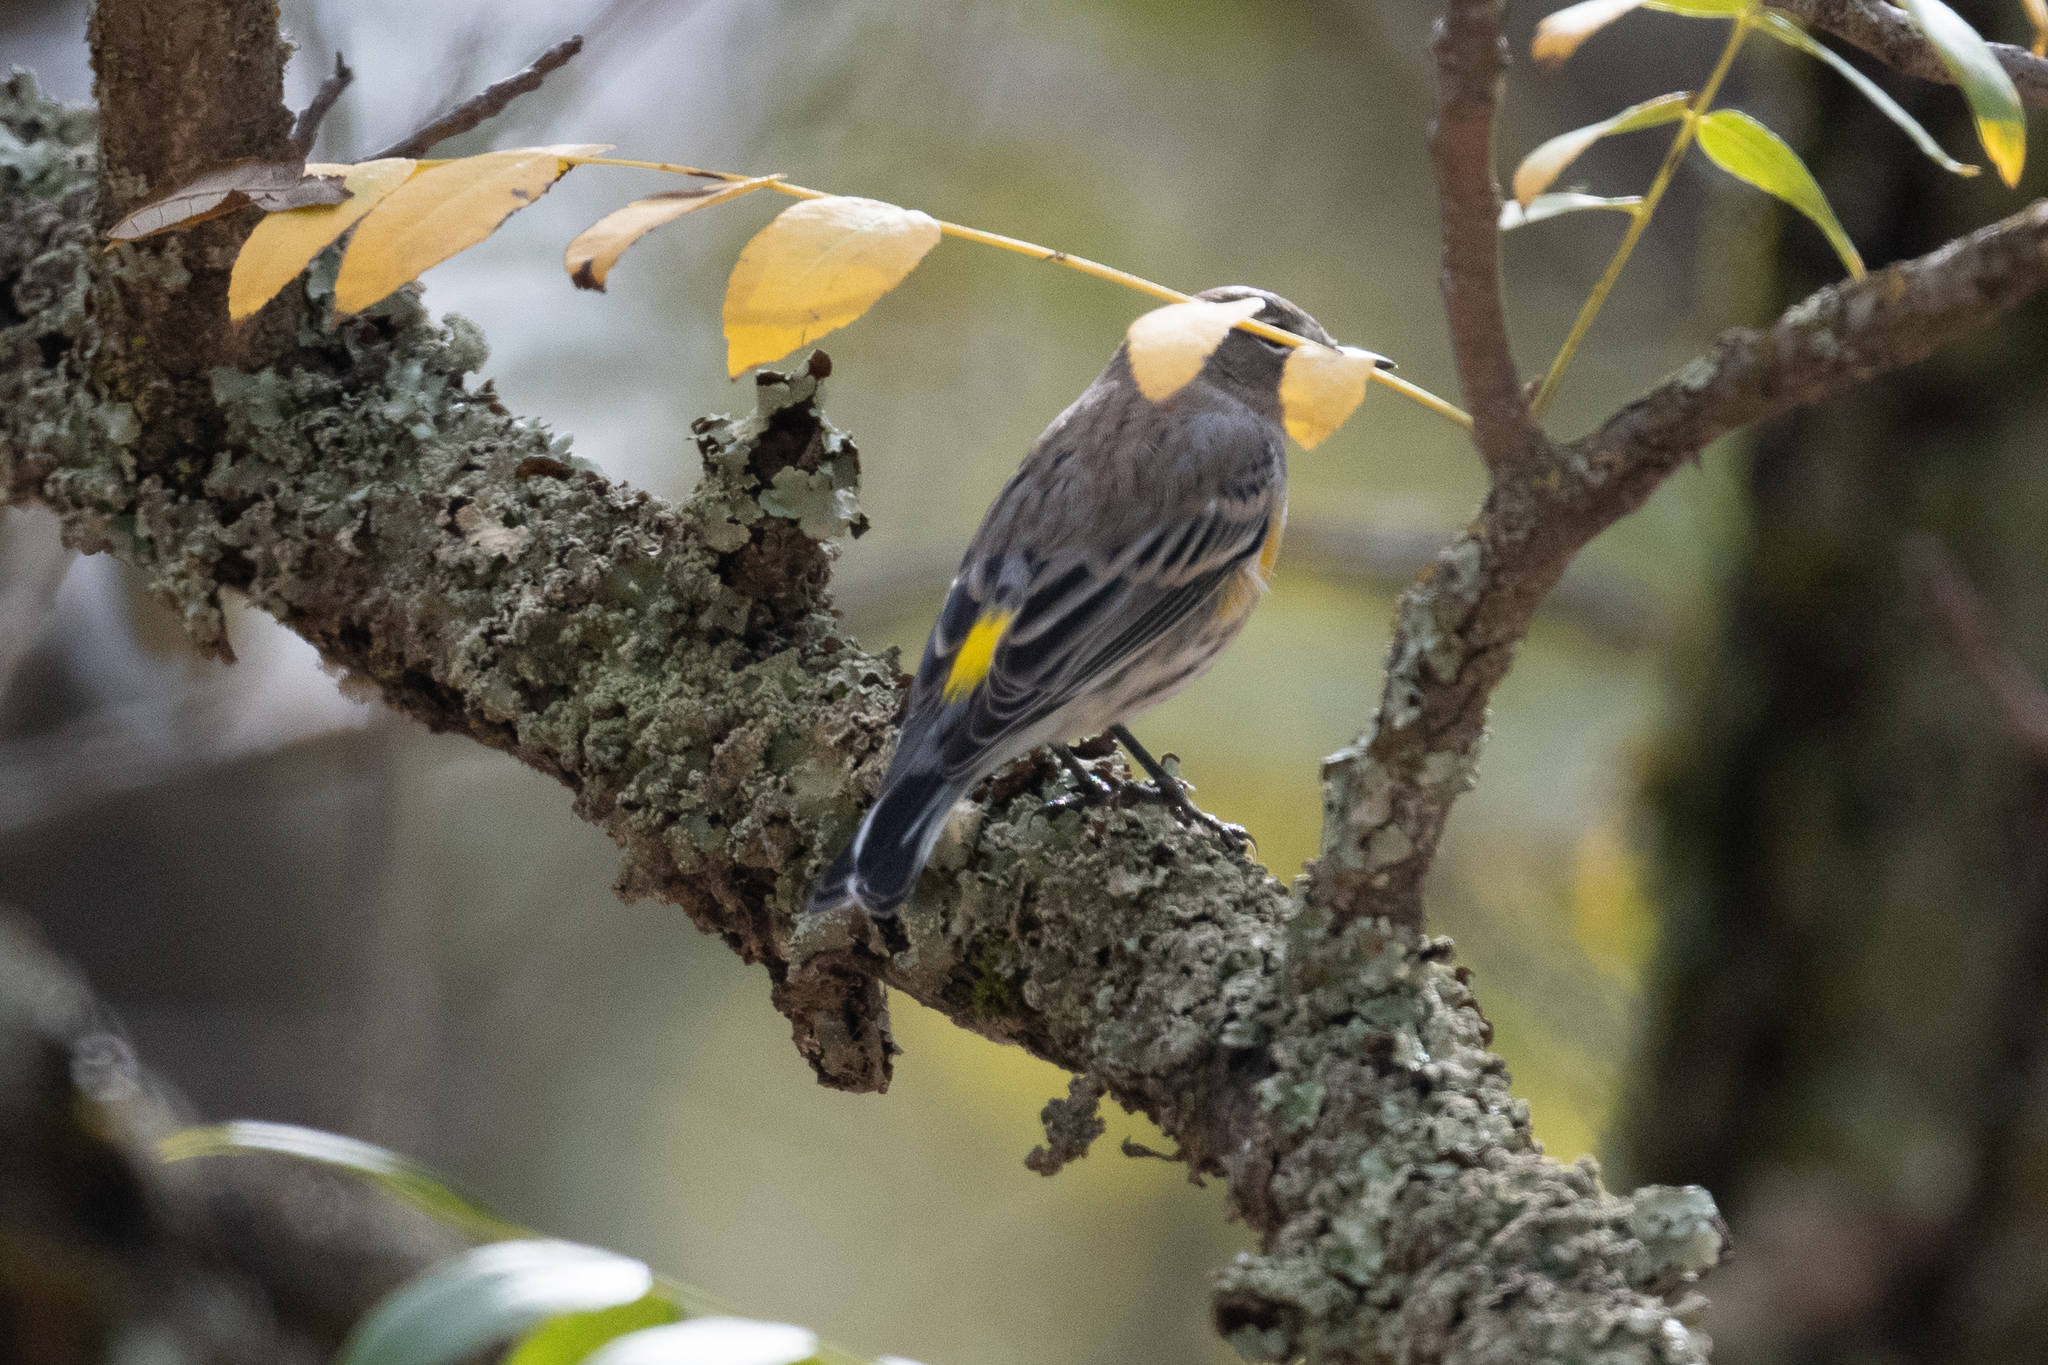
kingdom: Animalia
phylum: Chordata
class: Aves
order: Passeriformes
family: Parulidae
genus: Setophaga
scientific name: Setophaga coronata
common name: Myrtle warbler
